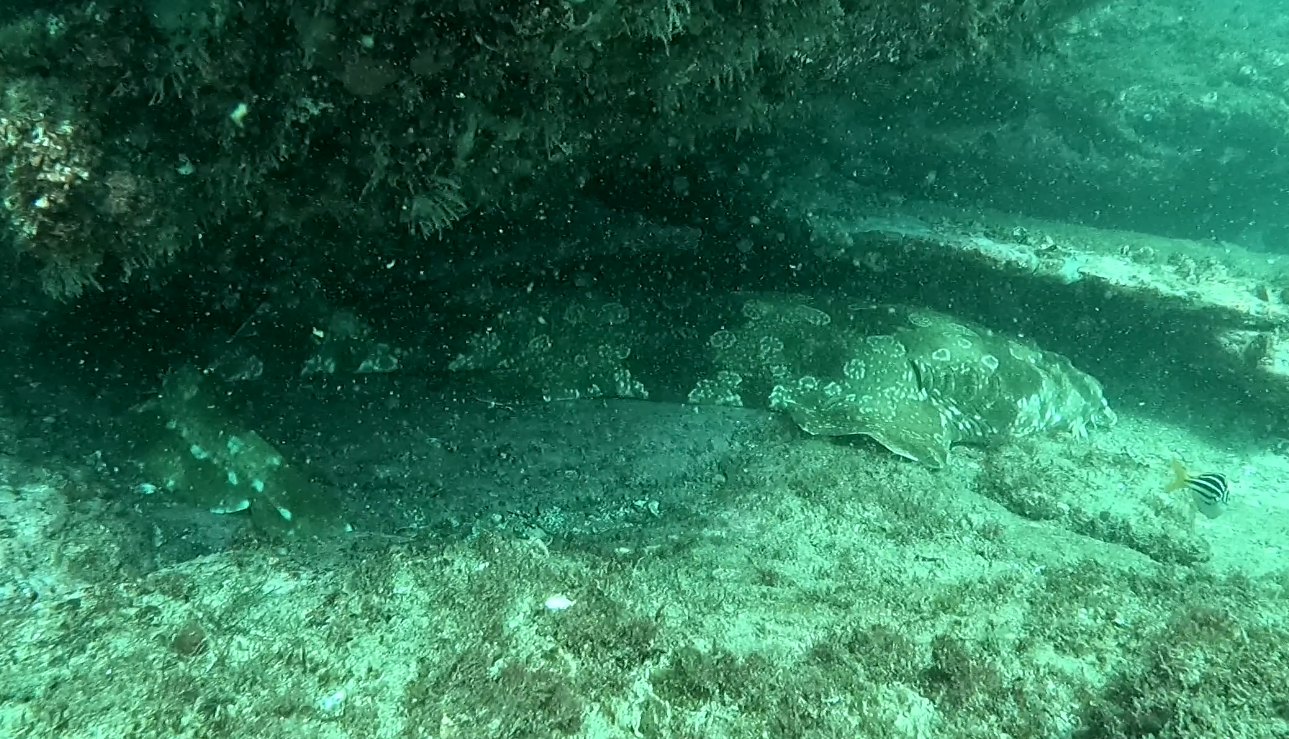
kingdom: Animalia
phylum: Chordata
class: Elasmobranchii
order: Orectolobiformes
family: Orectolobidae
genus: Orectolobus
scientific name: Orectolobus maculatus
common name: Spotted wobbegong
